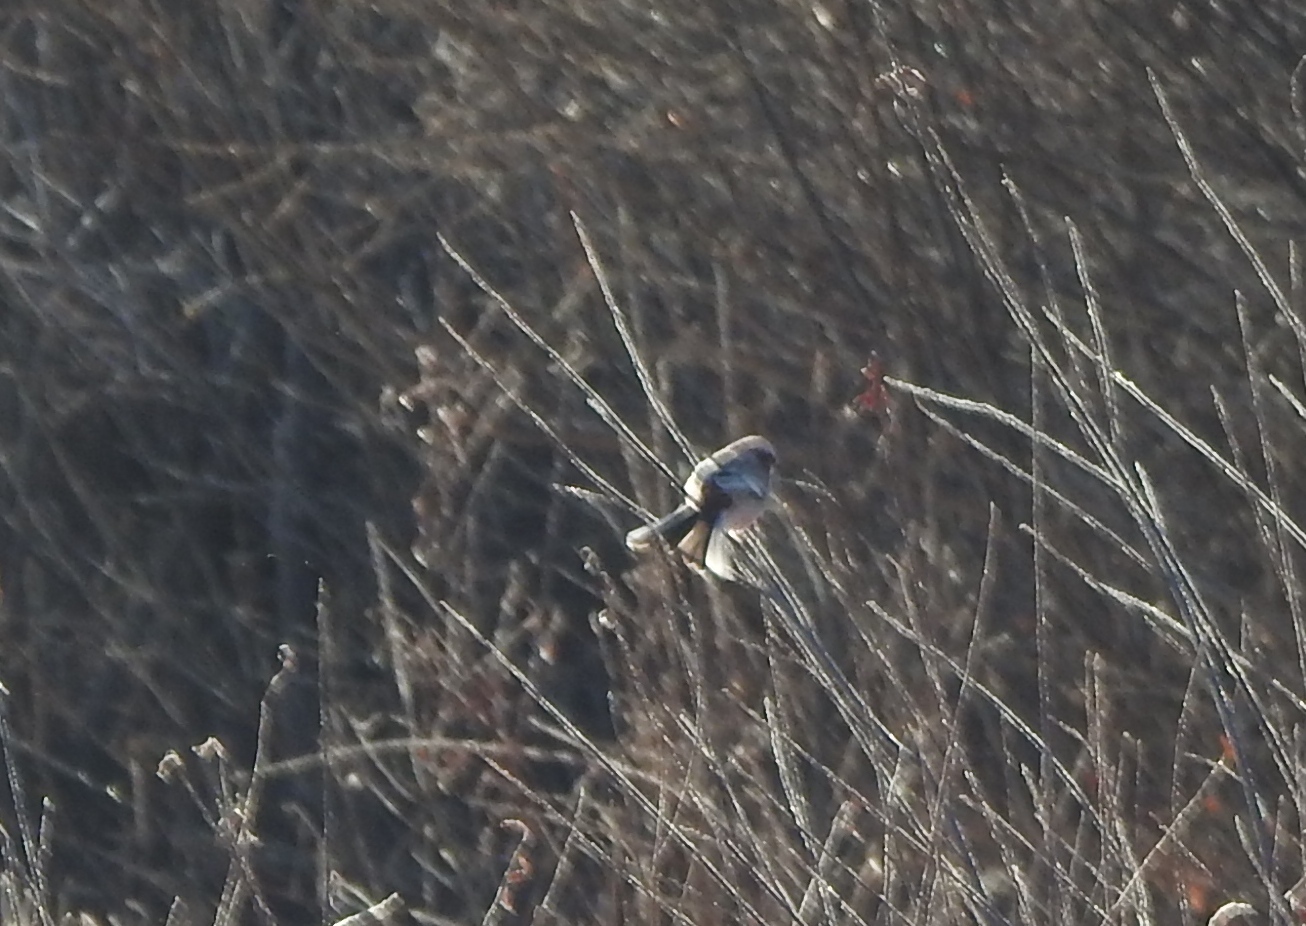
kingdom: Animalia
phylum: Chordata
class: Aves
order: Passeriformes
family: Fringillidae
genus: Carpodacus
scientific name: Carpodacus sibiricus
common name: Long-tailed rosefinch
